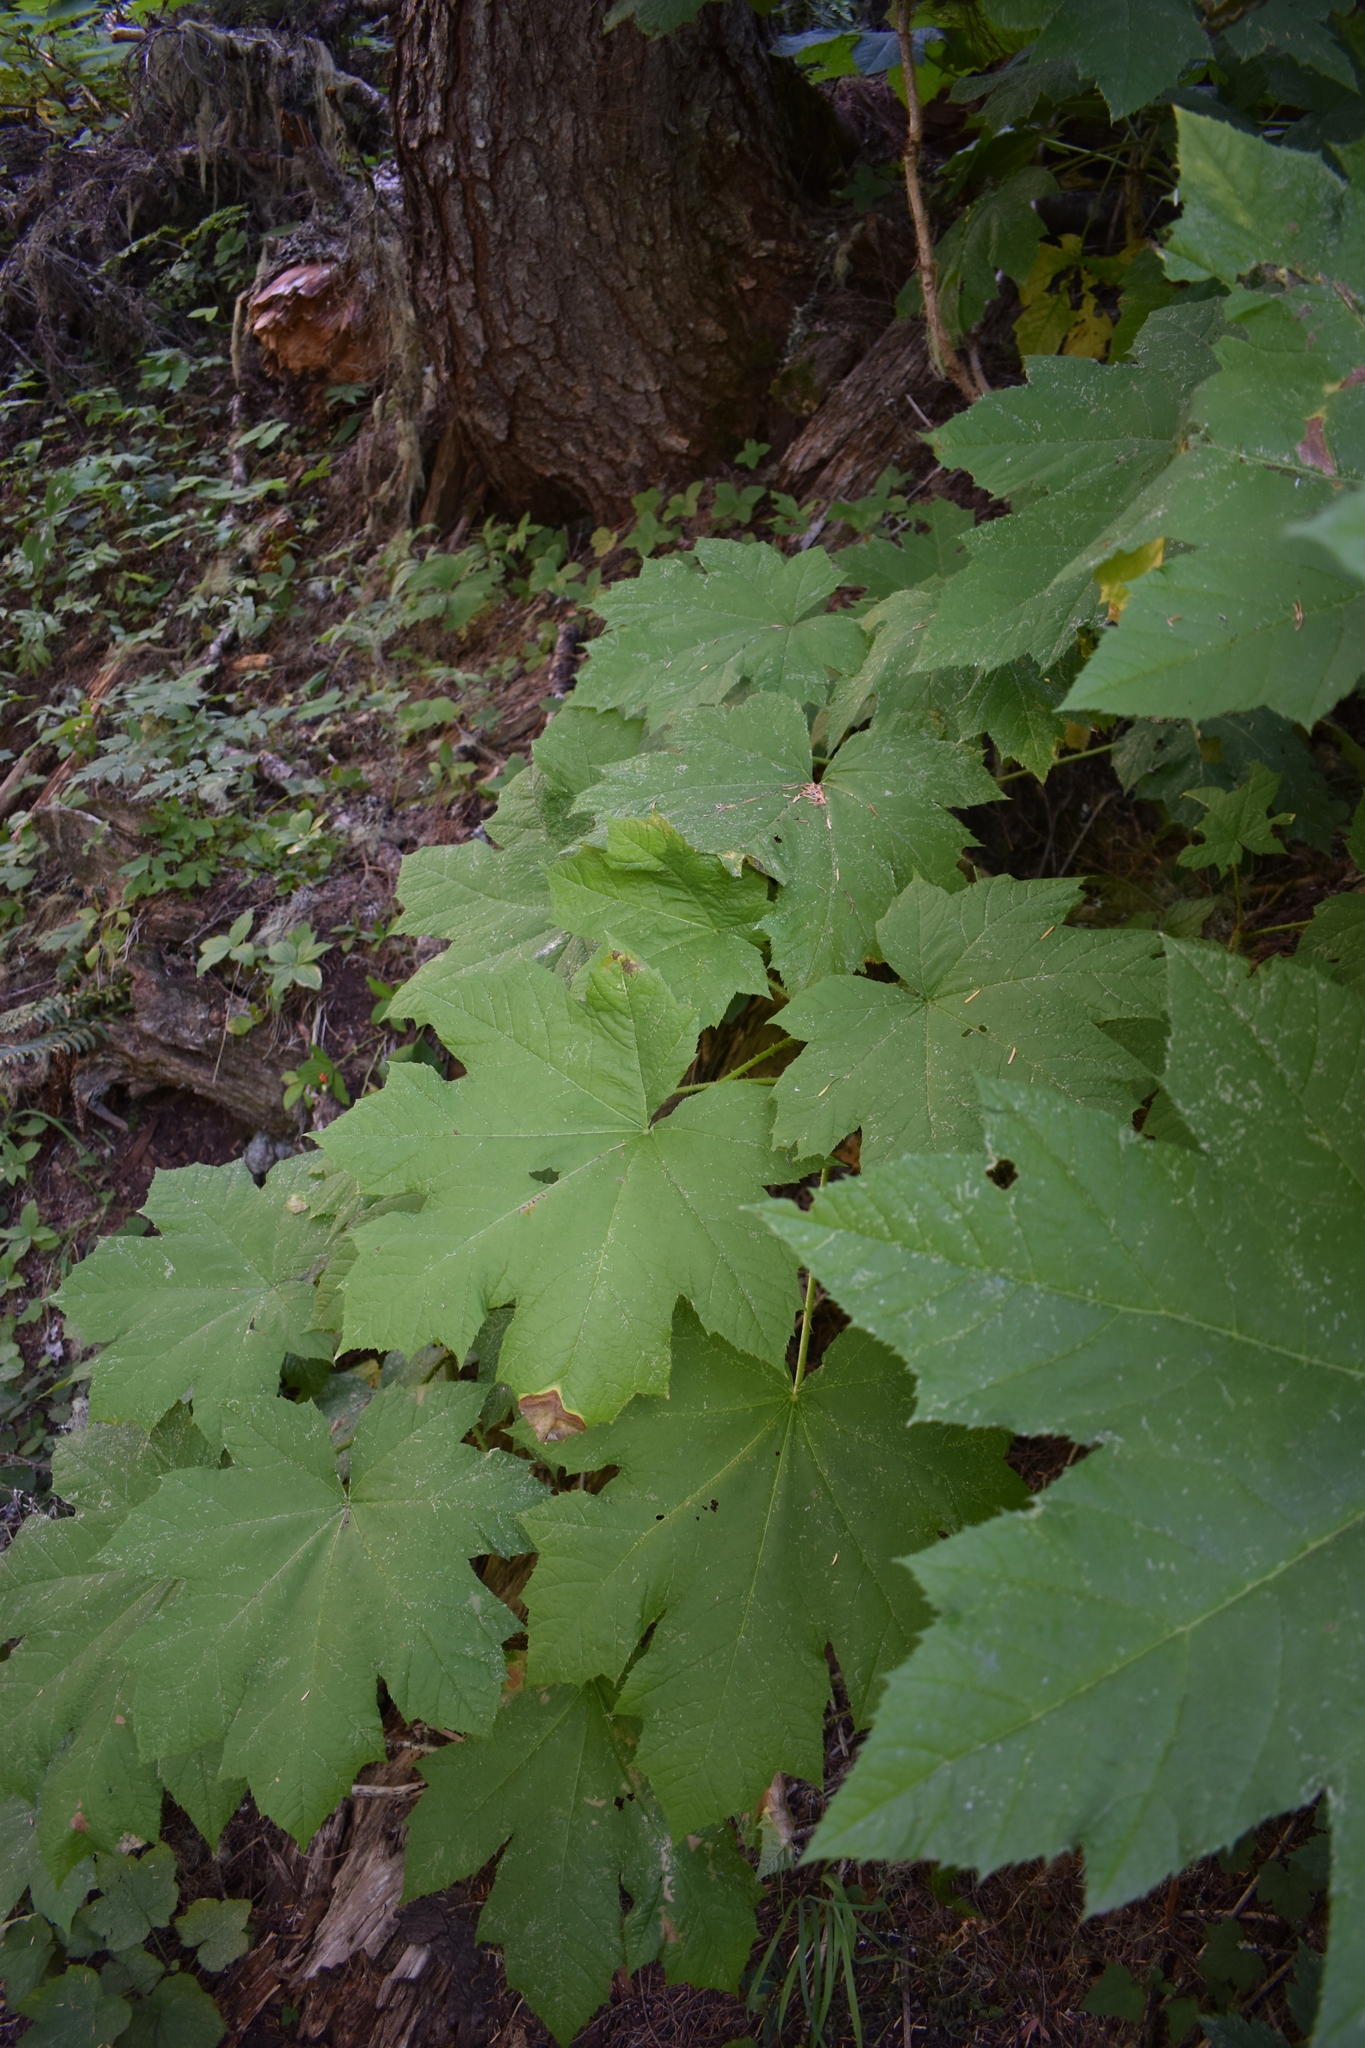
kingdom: Plantae
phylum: Tracheophyta
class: Magnoliopsida
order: Apiales
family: Araliaceae
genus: Oplopanax
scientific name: Oplopanax horridus
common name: Devil's walking-stick
